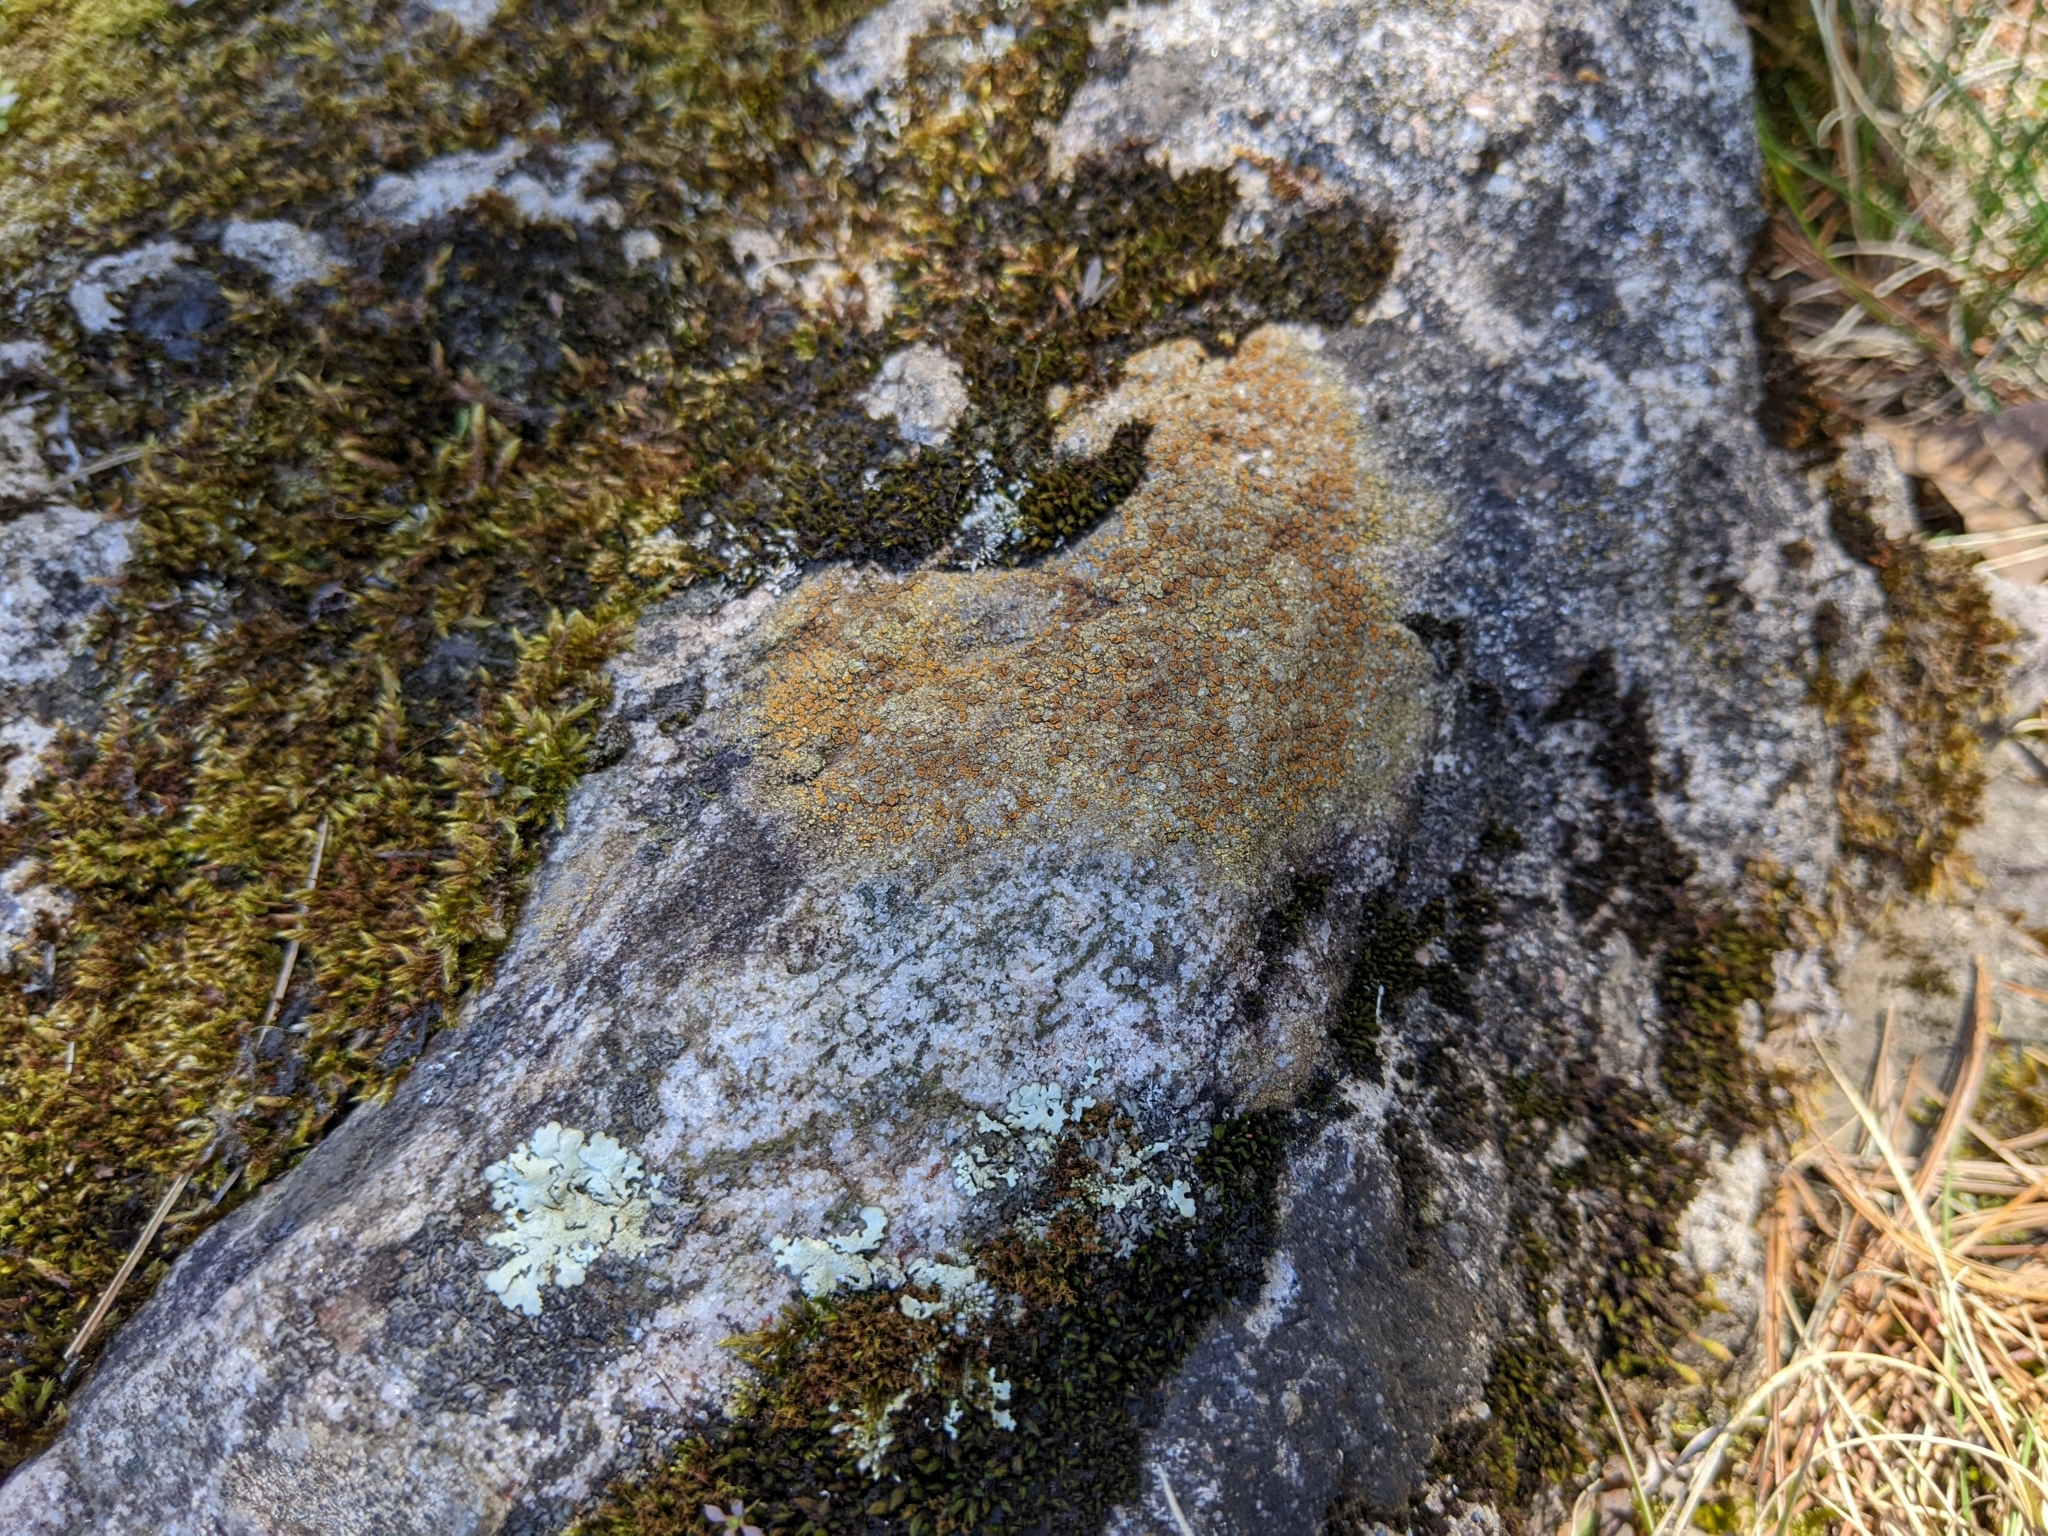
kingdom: Fungi
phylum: Ascomycota
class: Lecanoromycetes
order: Teloschistales
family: Teloschistaceae
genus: Gyalolechia
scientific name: Gyalolechia flavovirescens
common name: Sulphur firedot
